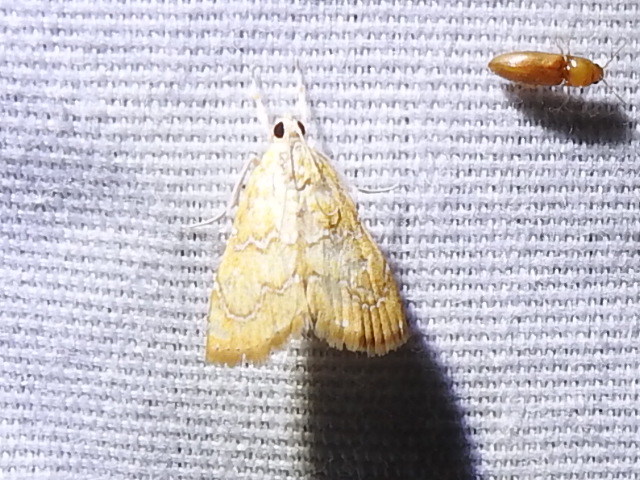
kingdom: Animalia
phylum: Arthropoda
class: Insecta
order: Lepidoptera
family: Crambidae
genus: Glaphyria
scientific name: Glaphyria sesquistrialis
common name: White-roped glaphyria
